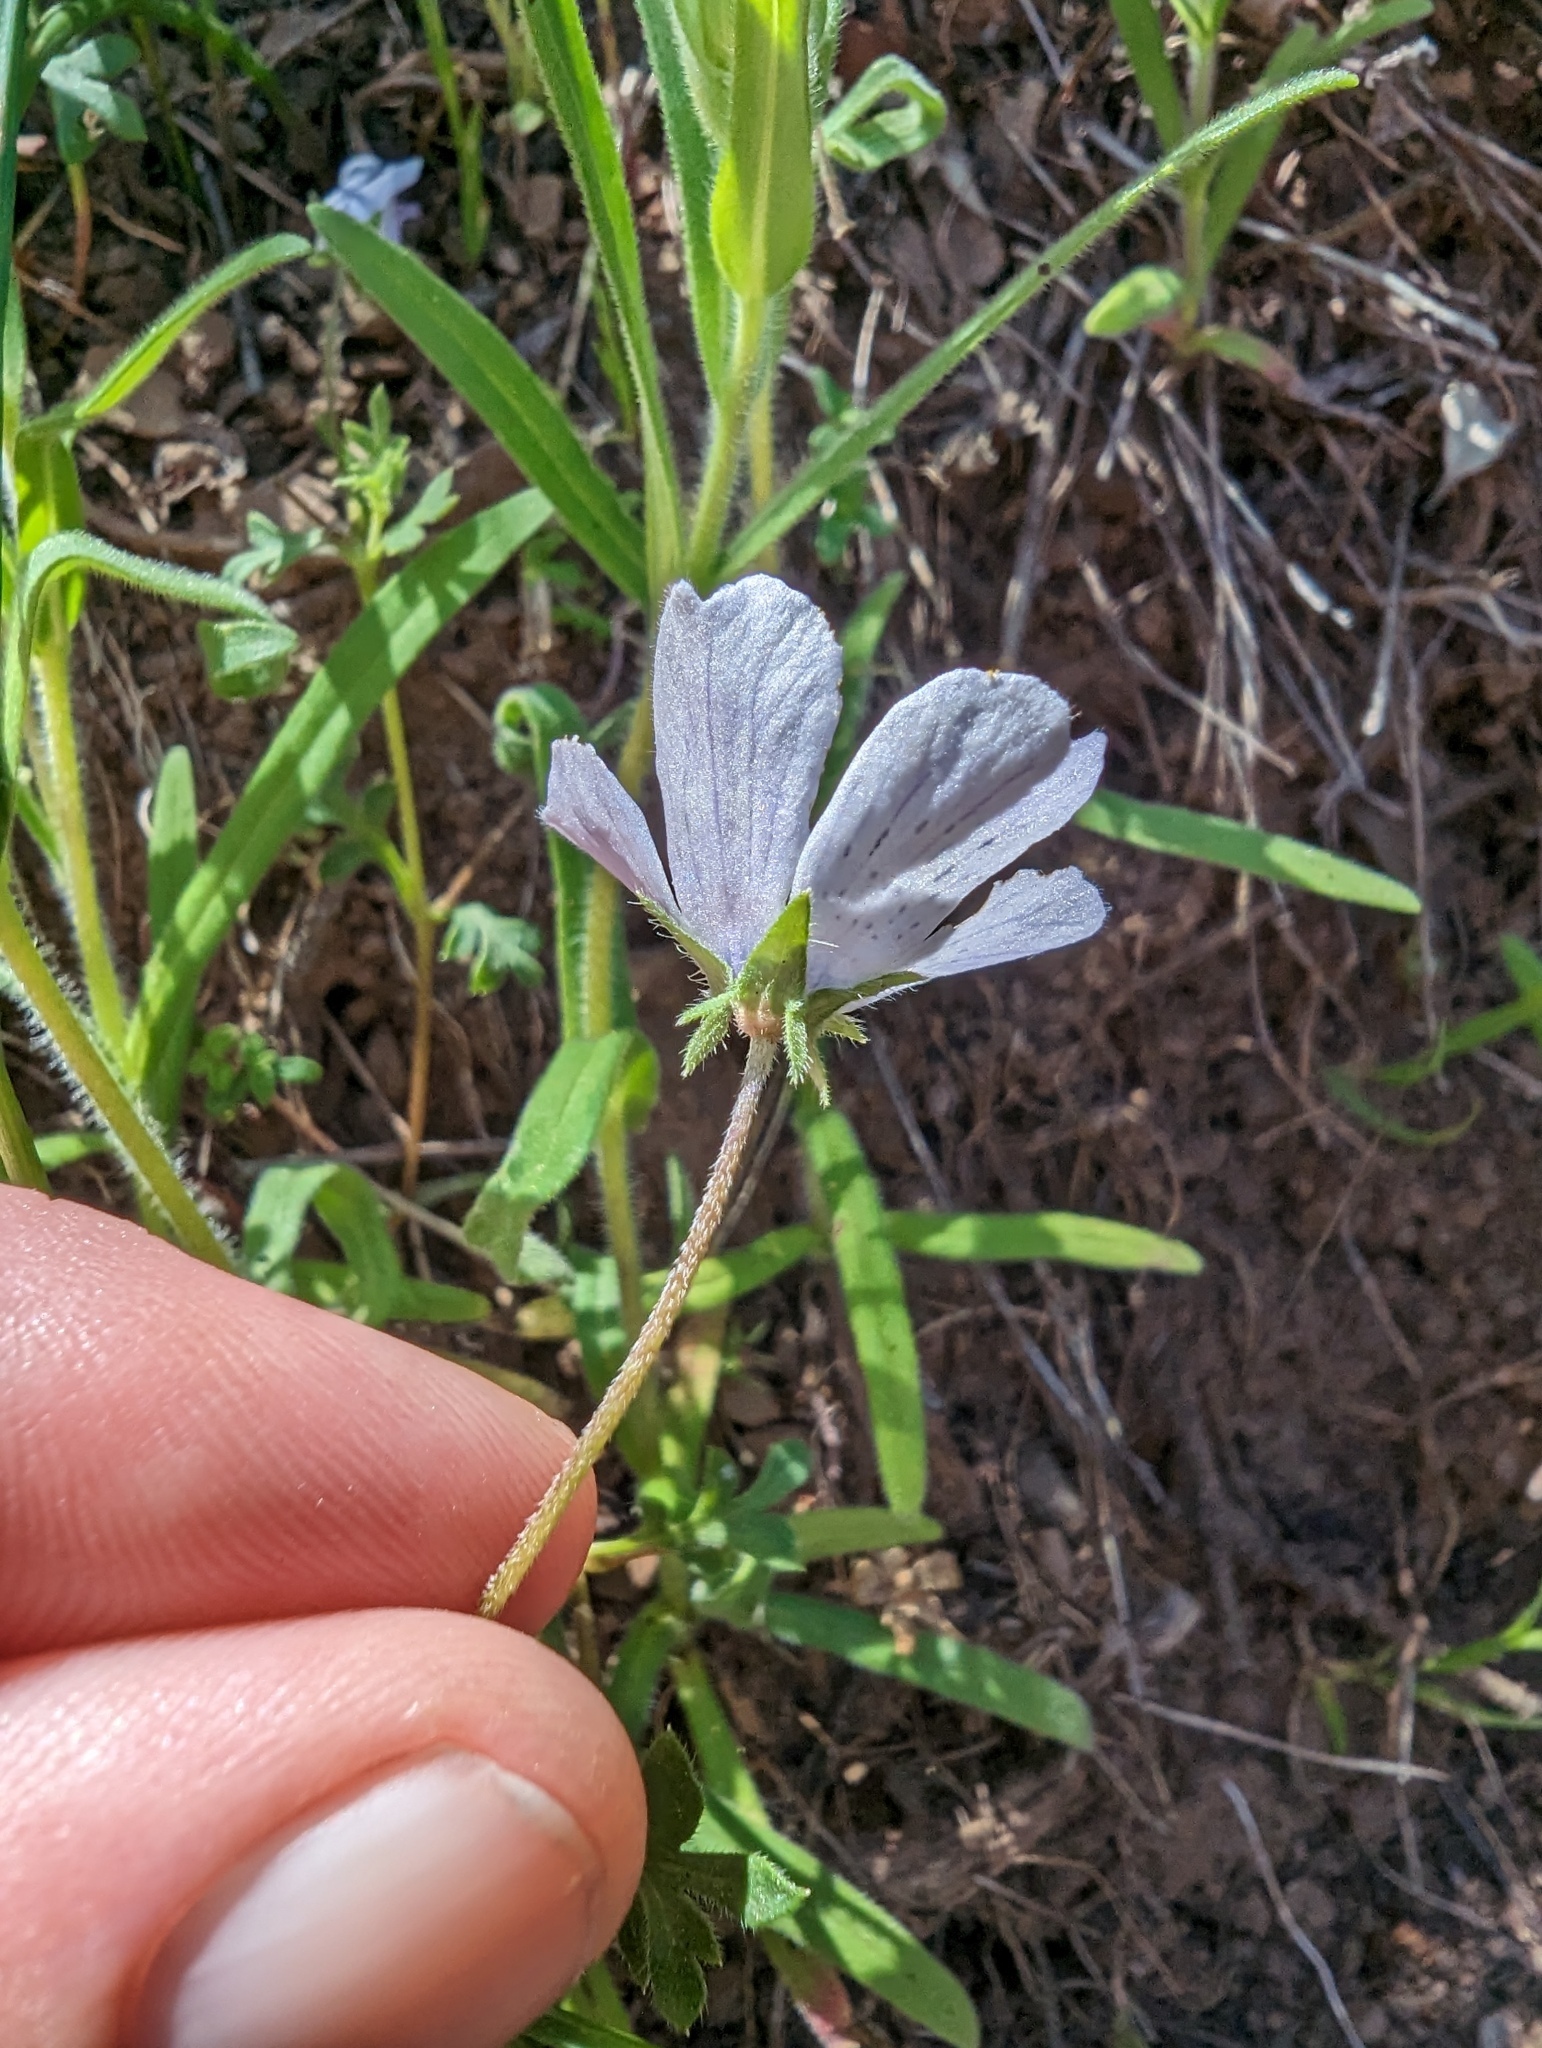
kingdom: Plantae
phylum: Tracheophyta
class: Magnoliopsida
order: Boraginales
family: Hydrophyllaceae
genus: Nemophila
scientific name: Nemophila menziesii
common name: Baby's-blue-eyes
